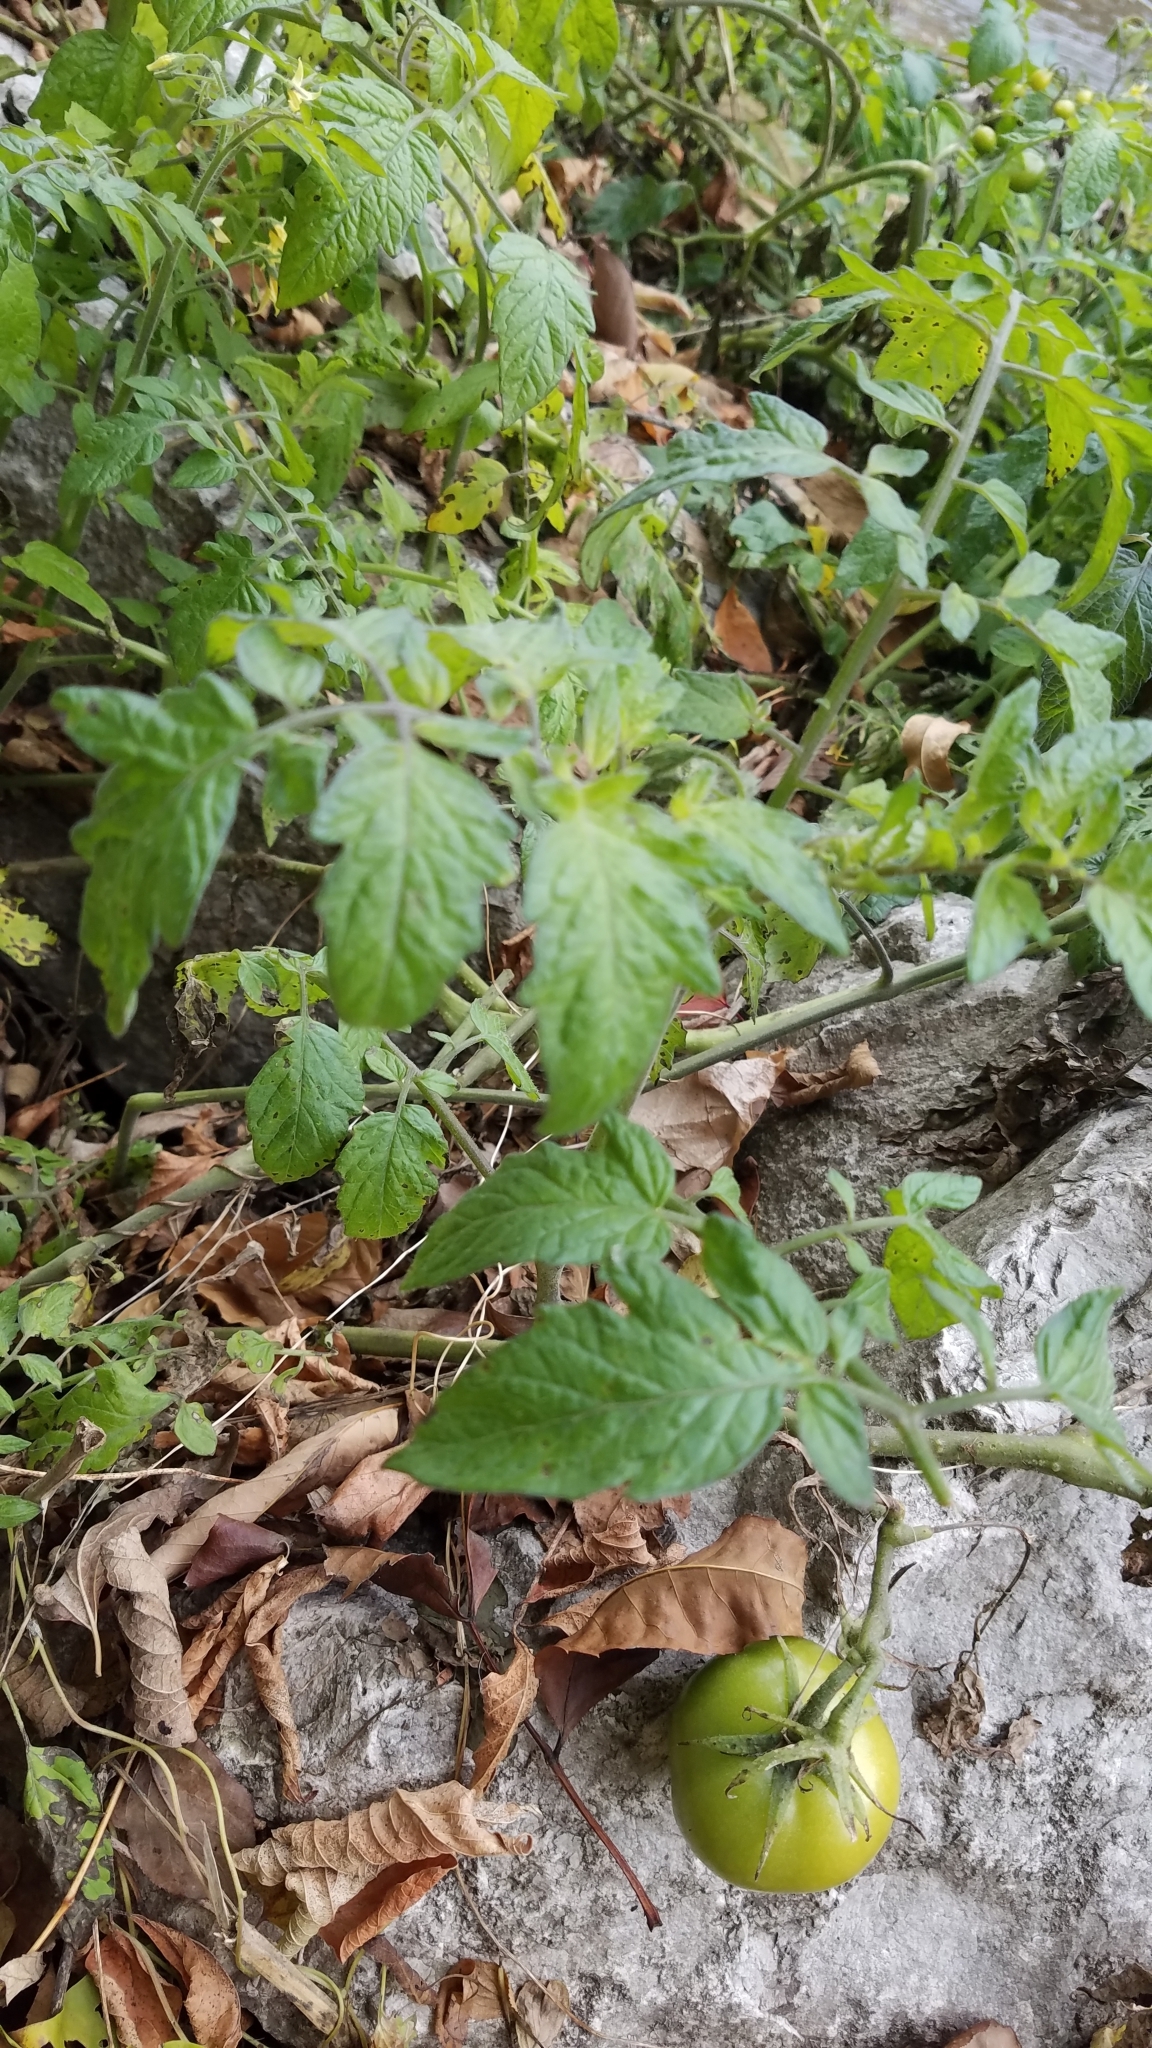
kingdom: Plantae
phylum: Tracheophyta
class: Magnoliopsida
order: Solanales
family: Solanaceae
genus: Solanum
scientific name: Solanum lycopersicum
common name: Garden tomato
